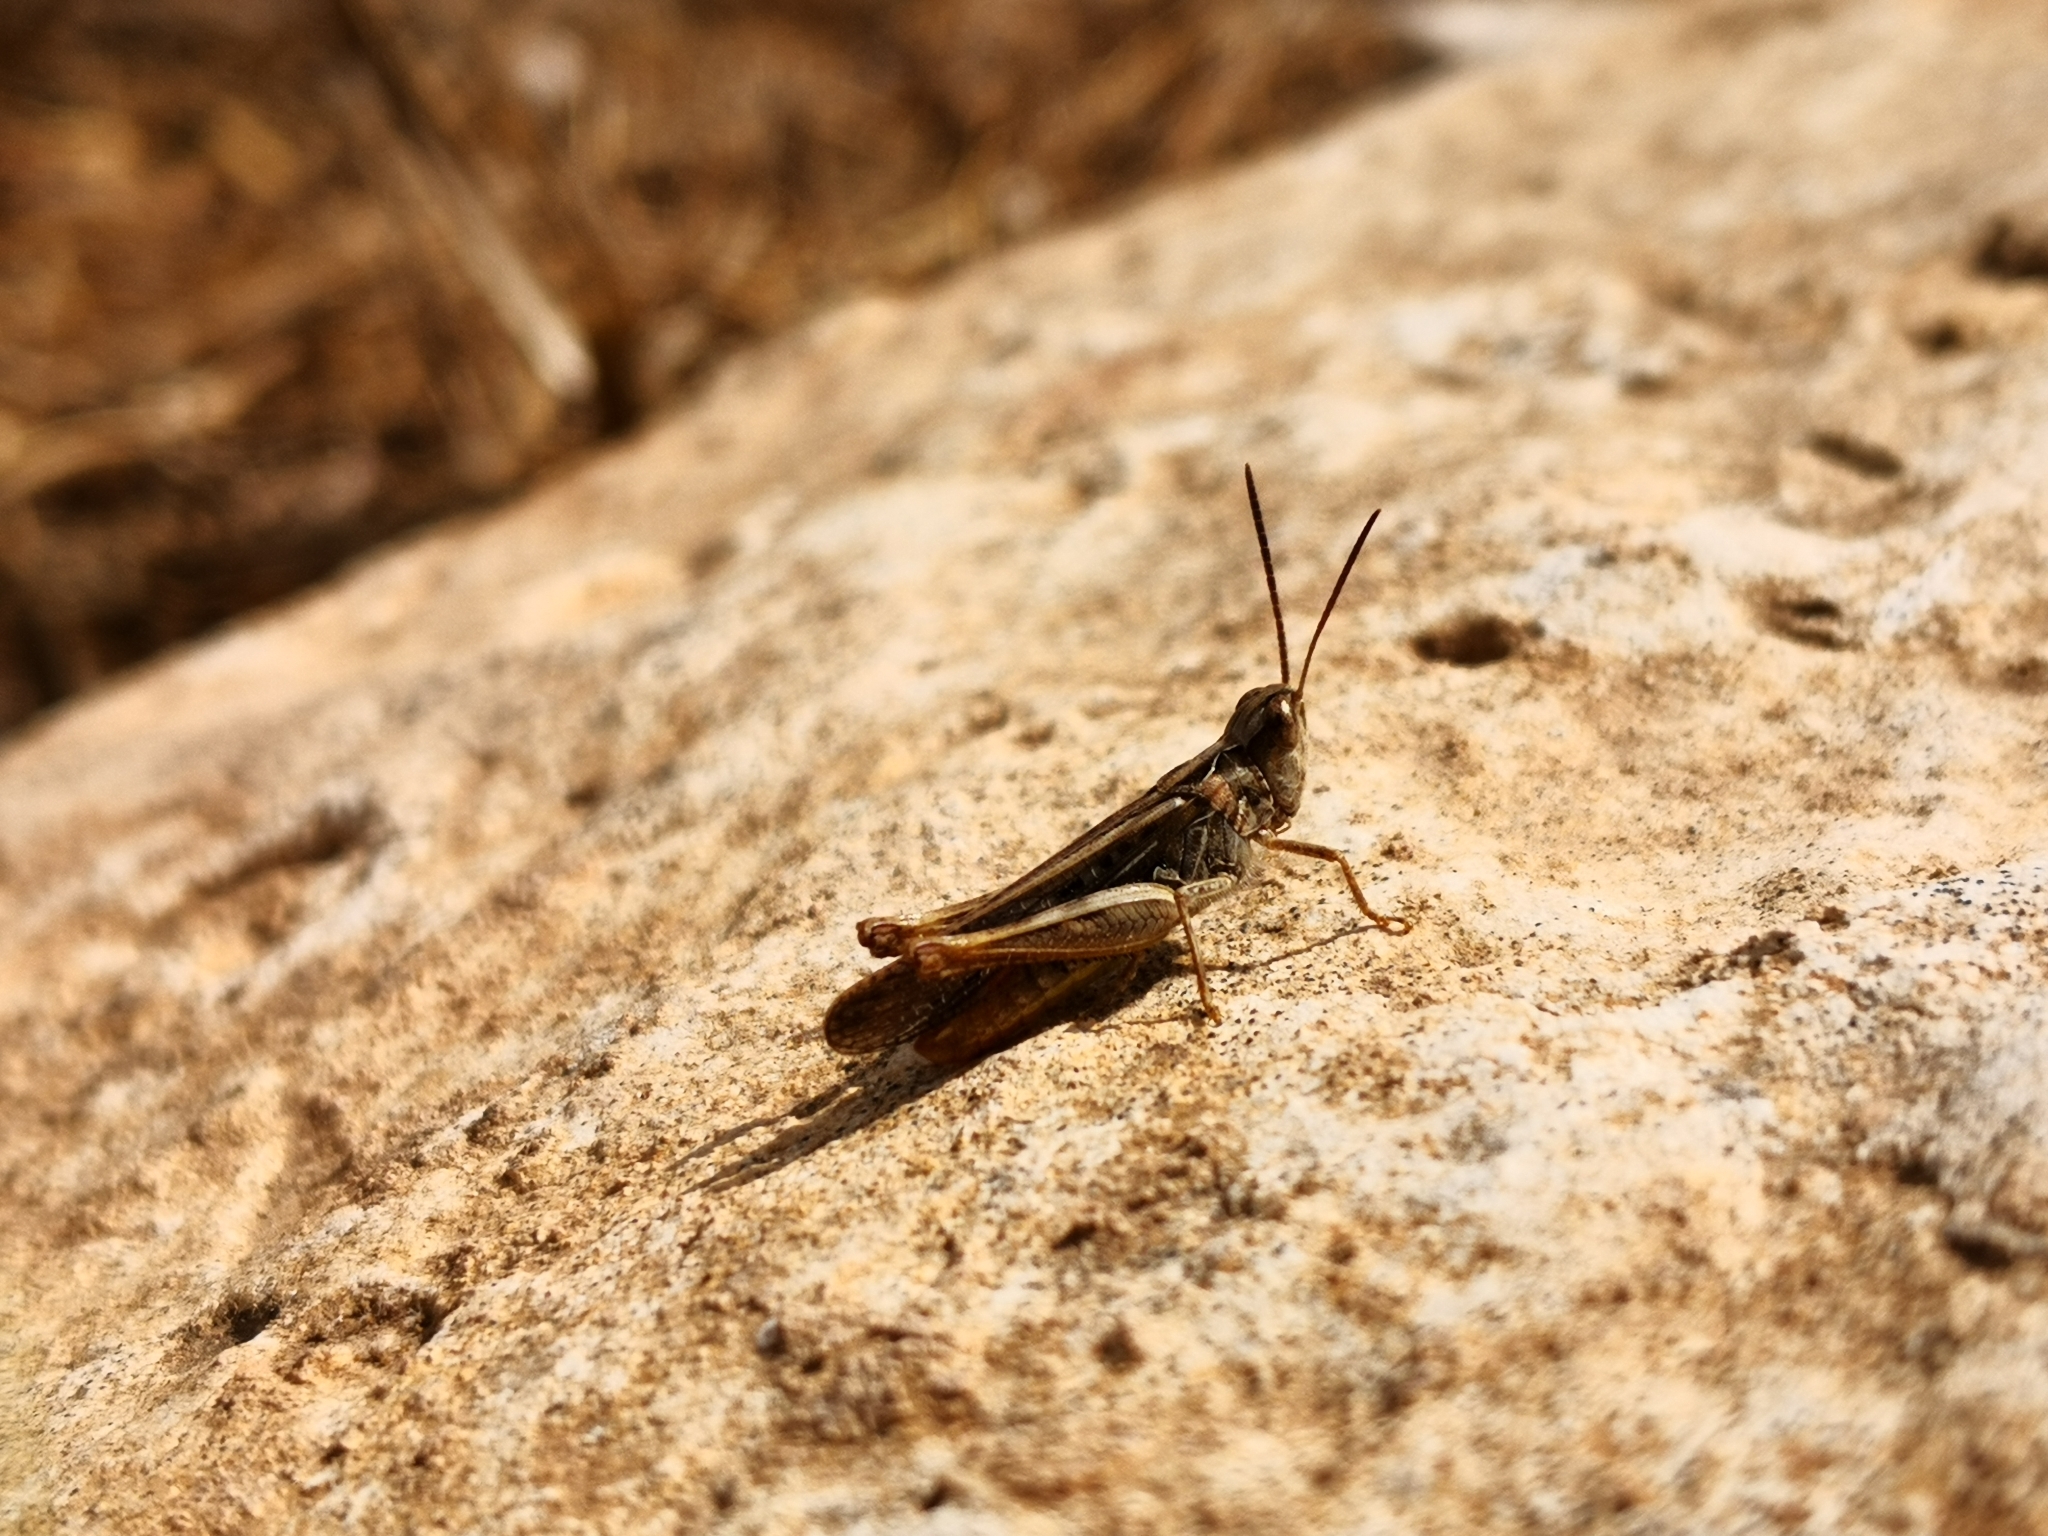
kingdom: Animalia
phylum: Arthropoda
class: Insecta
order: Orthoptera
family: Acrididae
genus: Chorthippus
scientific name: Chorthippus maritimus
